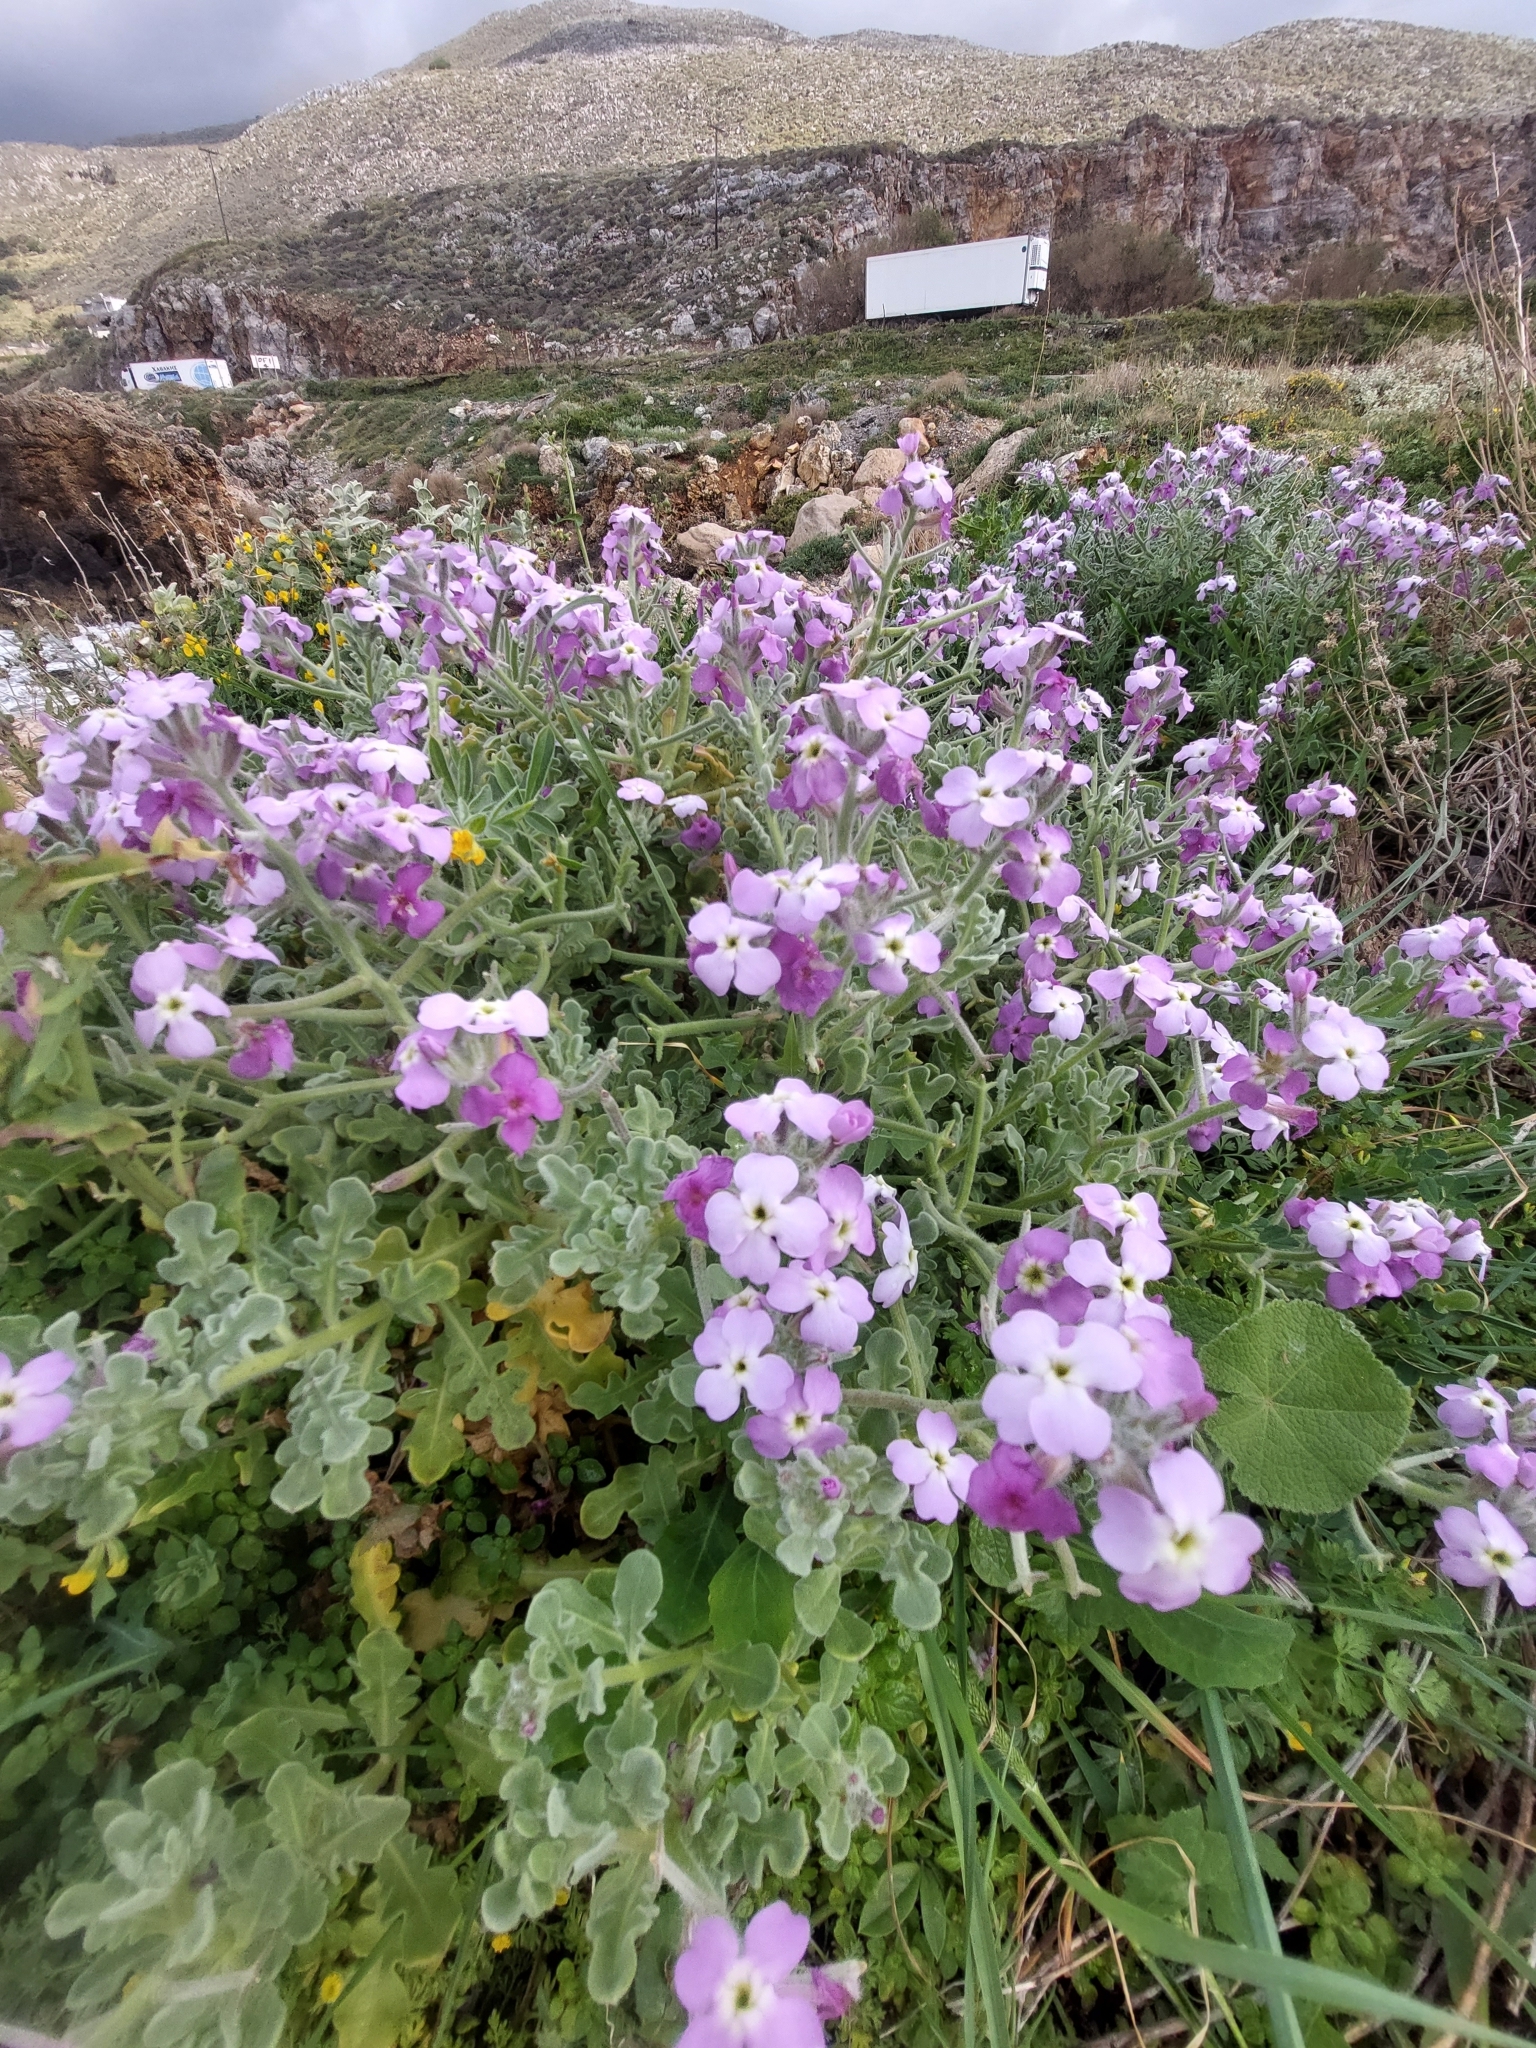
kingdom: Plantae
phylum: Tracheophyta
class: Magnoliopsida
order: Brassicales
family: Brassicaceae
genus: Matthiola
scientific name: Matthiola tricuspidata
